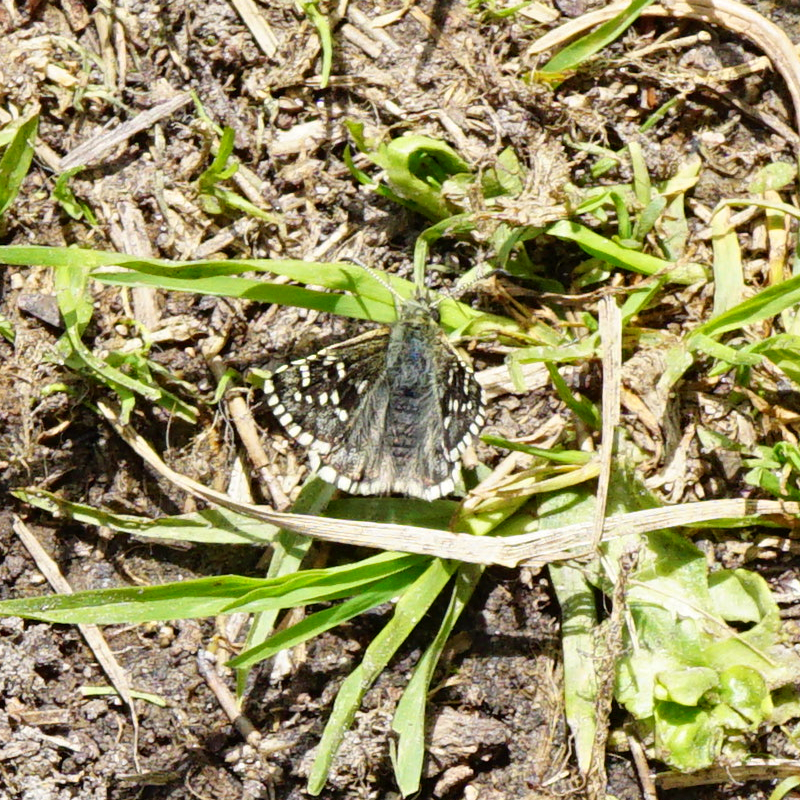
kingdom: Animalia
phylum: Arthropoda
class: Insecta
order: Lepidoptera
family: Hesperiidae
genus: Pyrgus
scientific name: Pyrgus andromedae
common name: Alpine grizzled skipper
